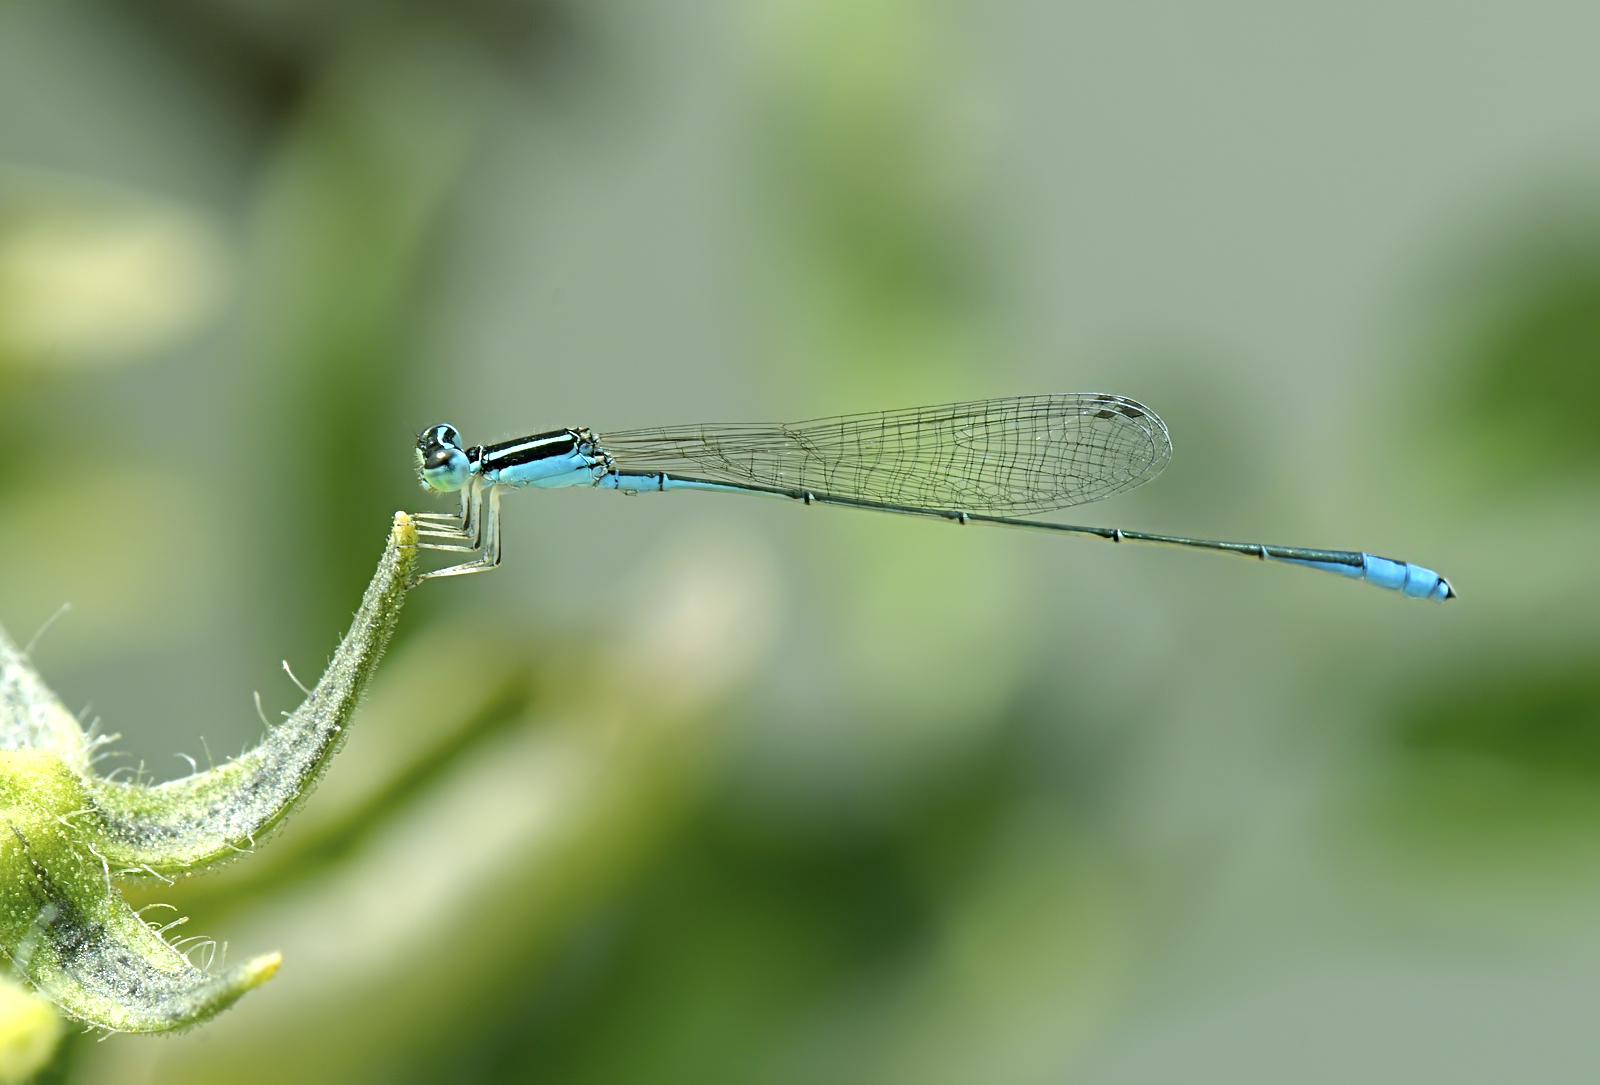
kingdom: Animalia
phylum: Arthropoda
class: Insecta
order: Odonata
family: Coenagrionidae
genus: Aciagrion
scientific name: Aciagrion occidentale
